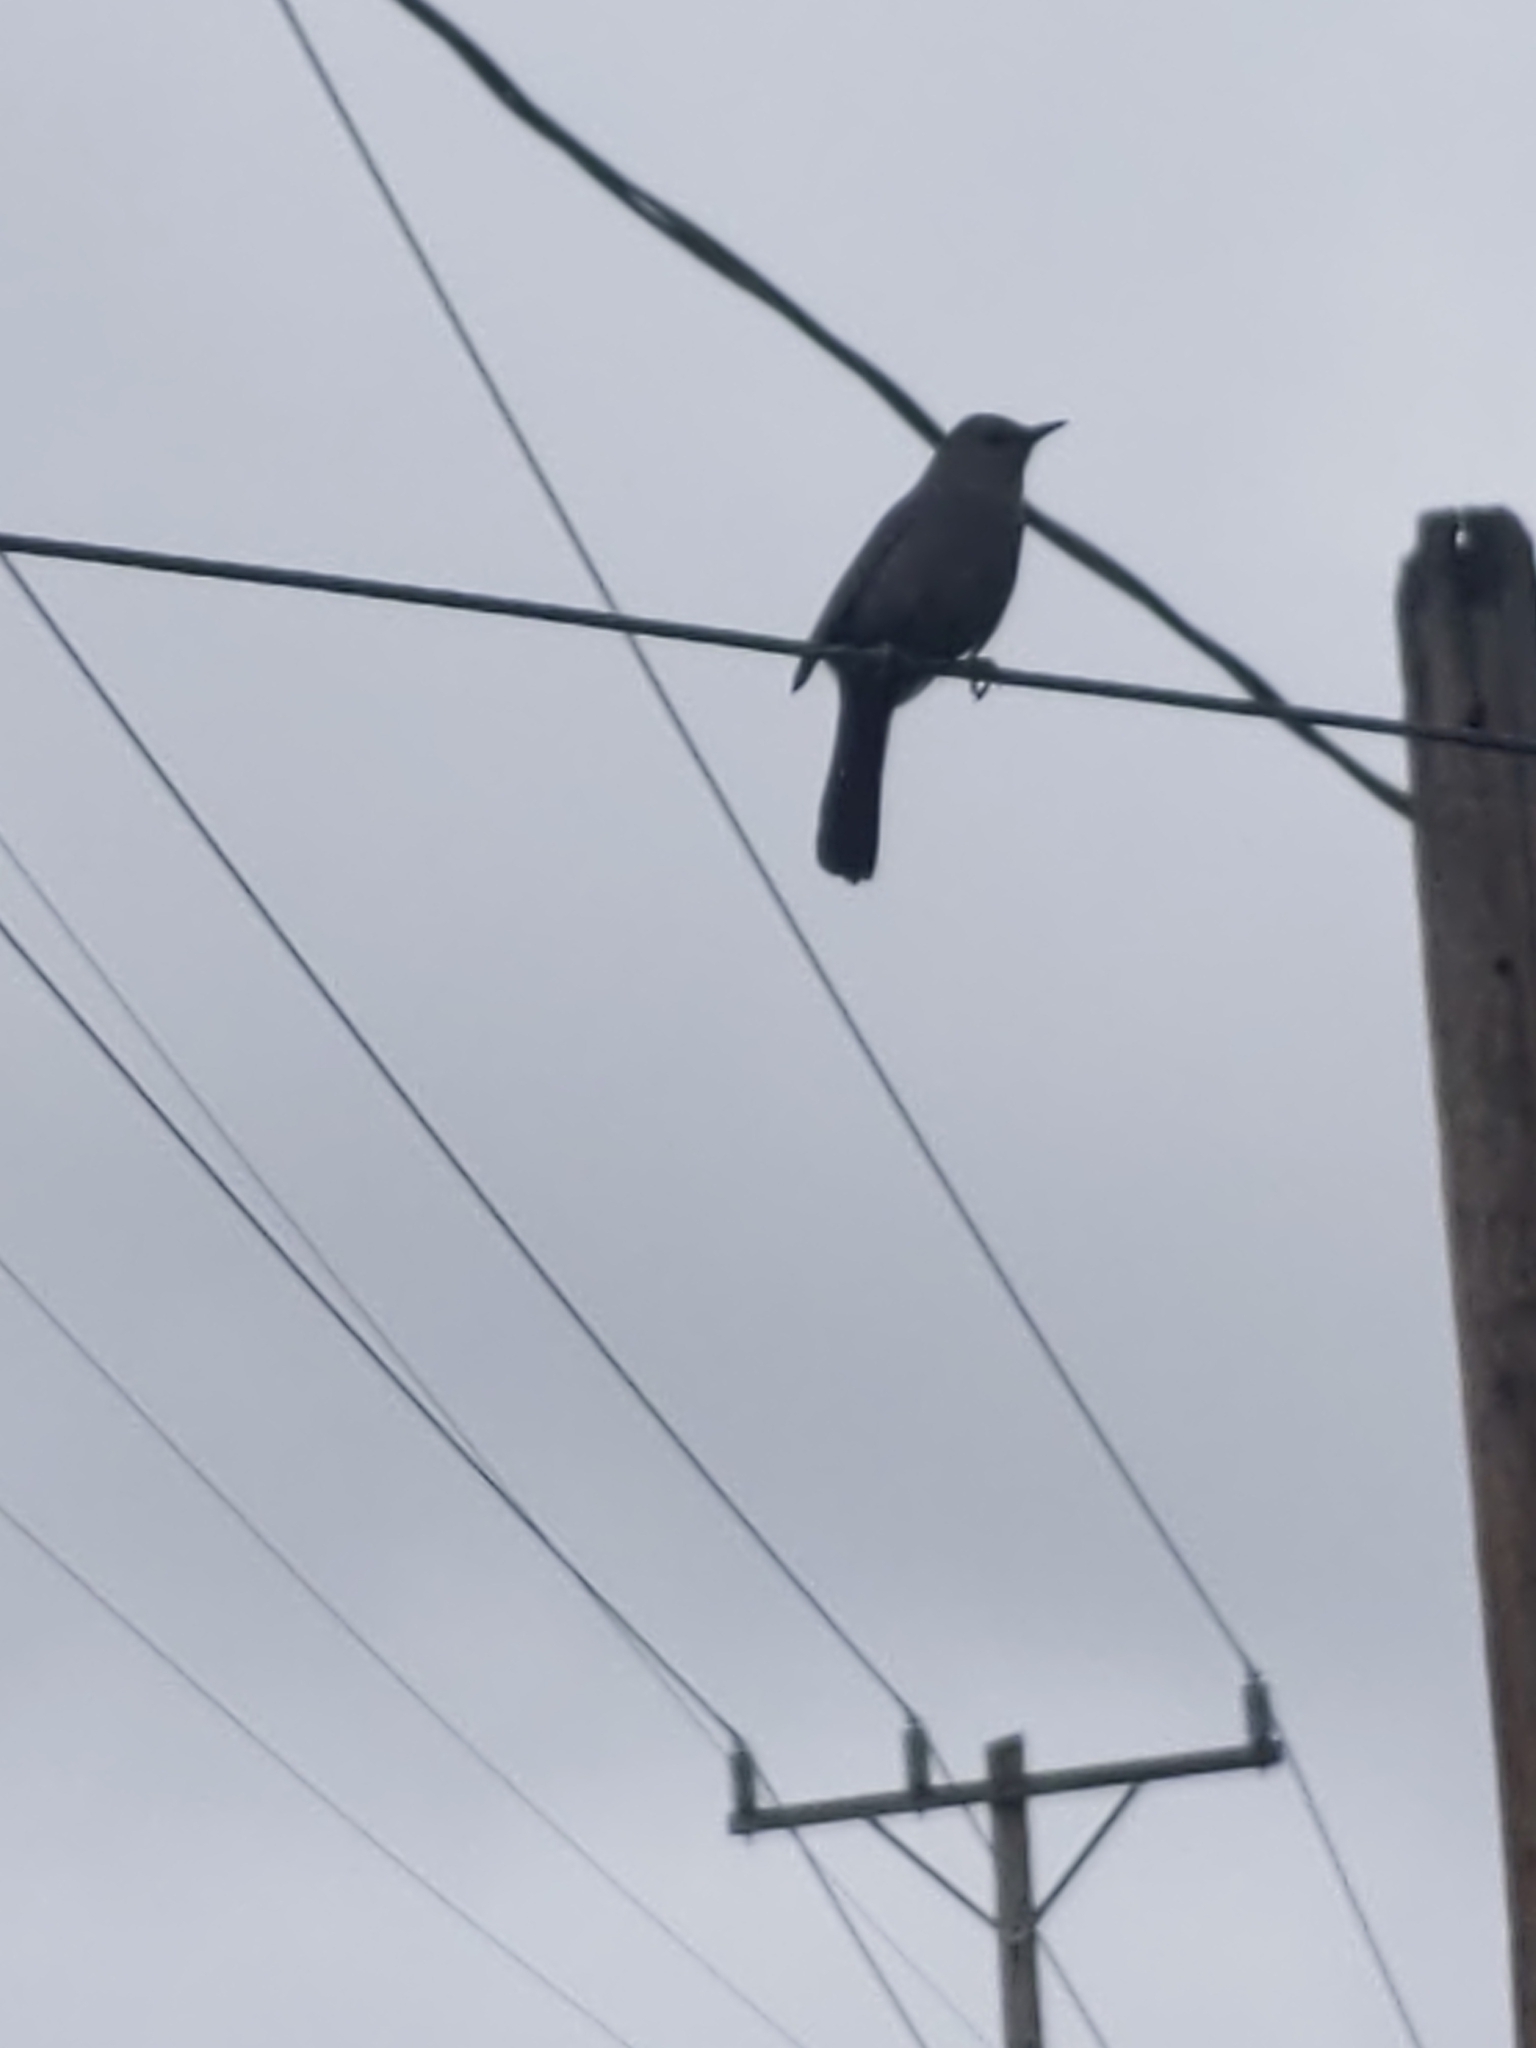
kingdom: Animalia
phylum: Chordata
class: Aves
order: Passeriformes
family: Mimidae
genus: Dumetella
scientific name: Dumetella carolinensis
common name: Gray catbird
